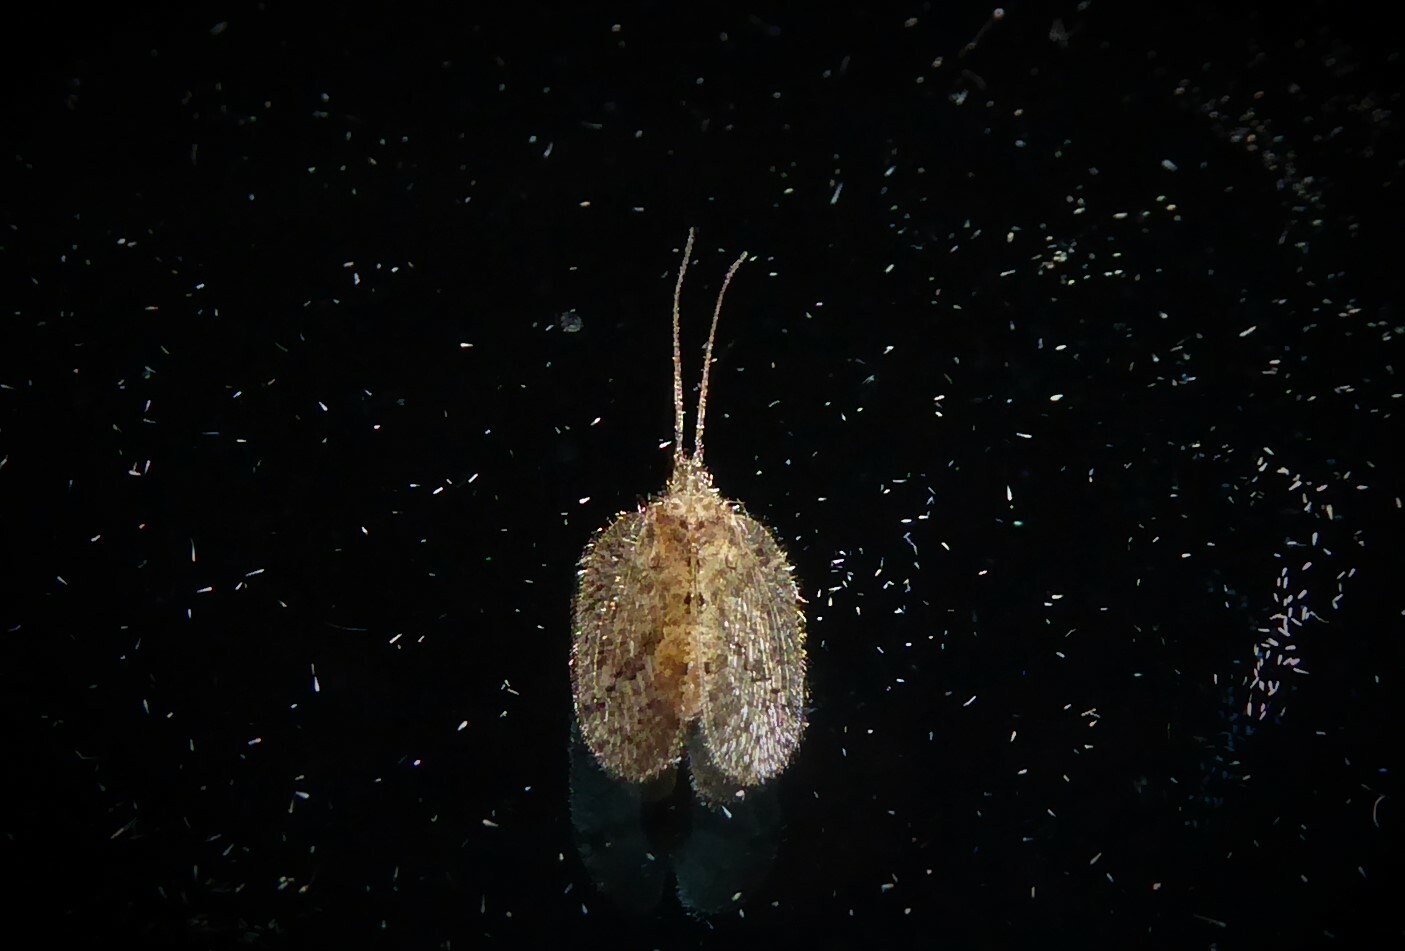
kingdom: Animalia
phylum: Arthropoda
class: Insecta
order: Neuroptera
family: Hemerobiidae
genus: Psectra
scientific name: Psectra nakaharai
